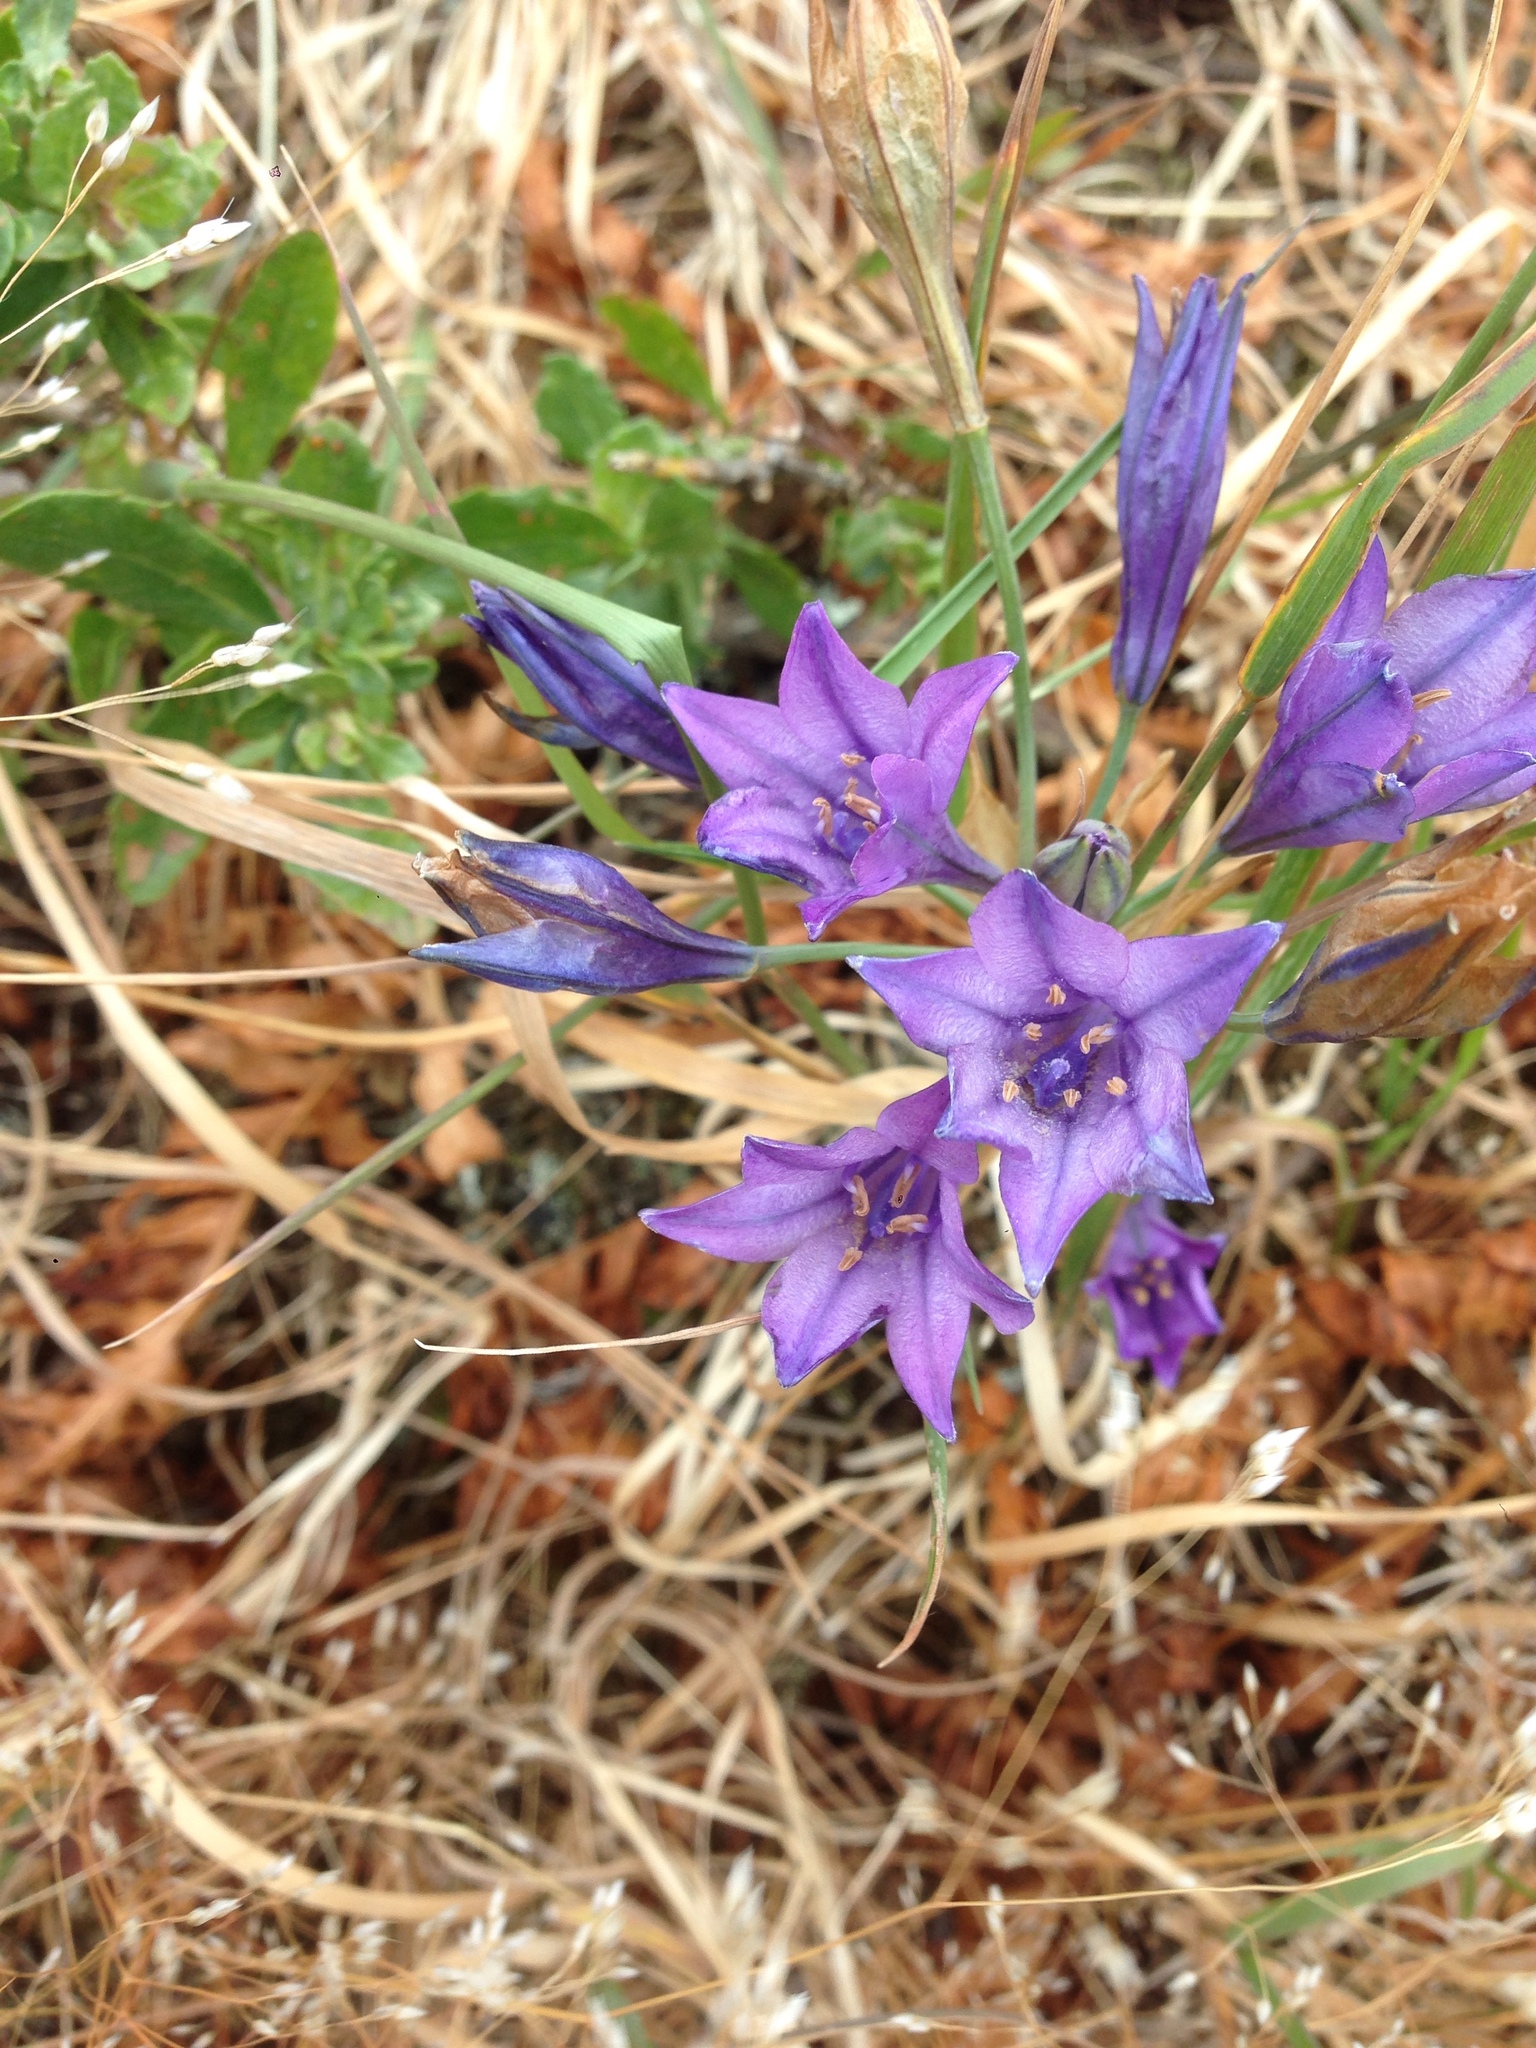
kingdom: Plantae
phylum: Tracheophyta
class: Liliopsida
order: Asparagales
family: Asparagaceae
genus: Triteleia
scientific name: Triteleia laxa
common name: Triplet-lily
